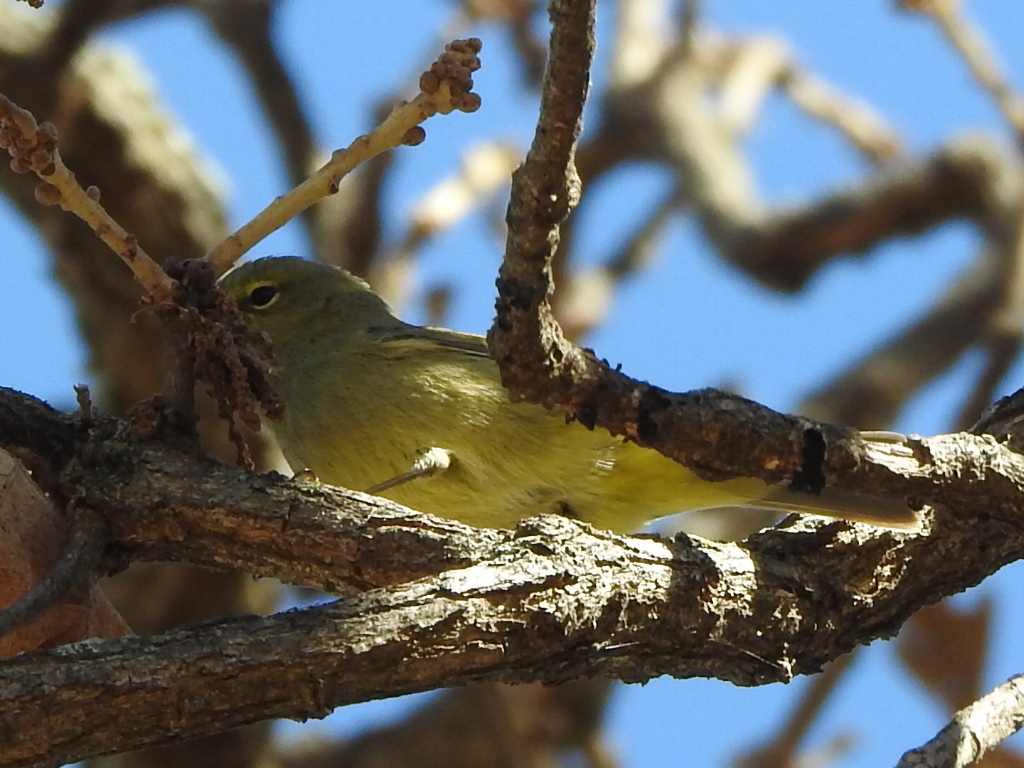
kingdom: Animalia
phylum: Chordata
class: Aves
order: Passeriformes
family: Parulidae
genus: Leiothlypis
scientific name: Leiothlypis celata
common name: Orange-crowned warbler
